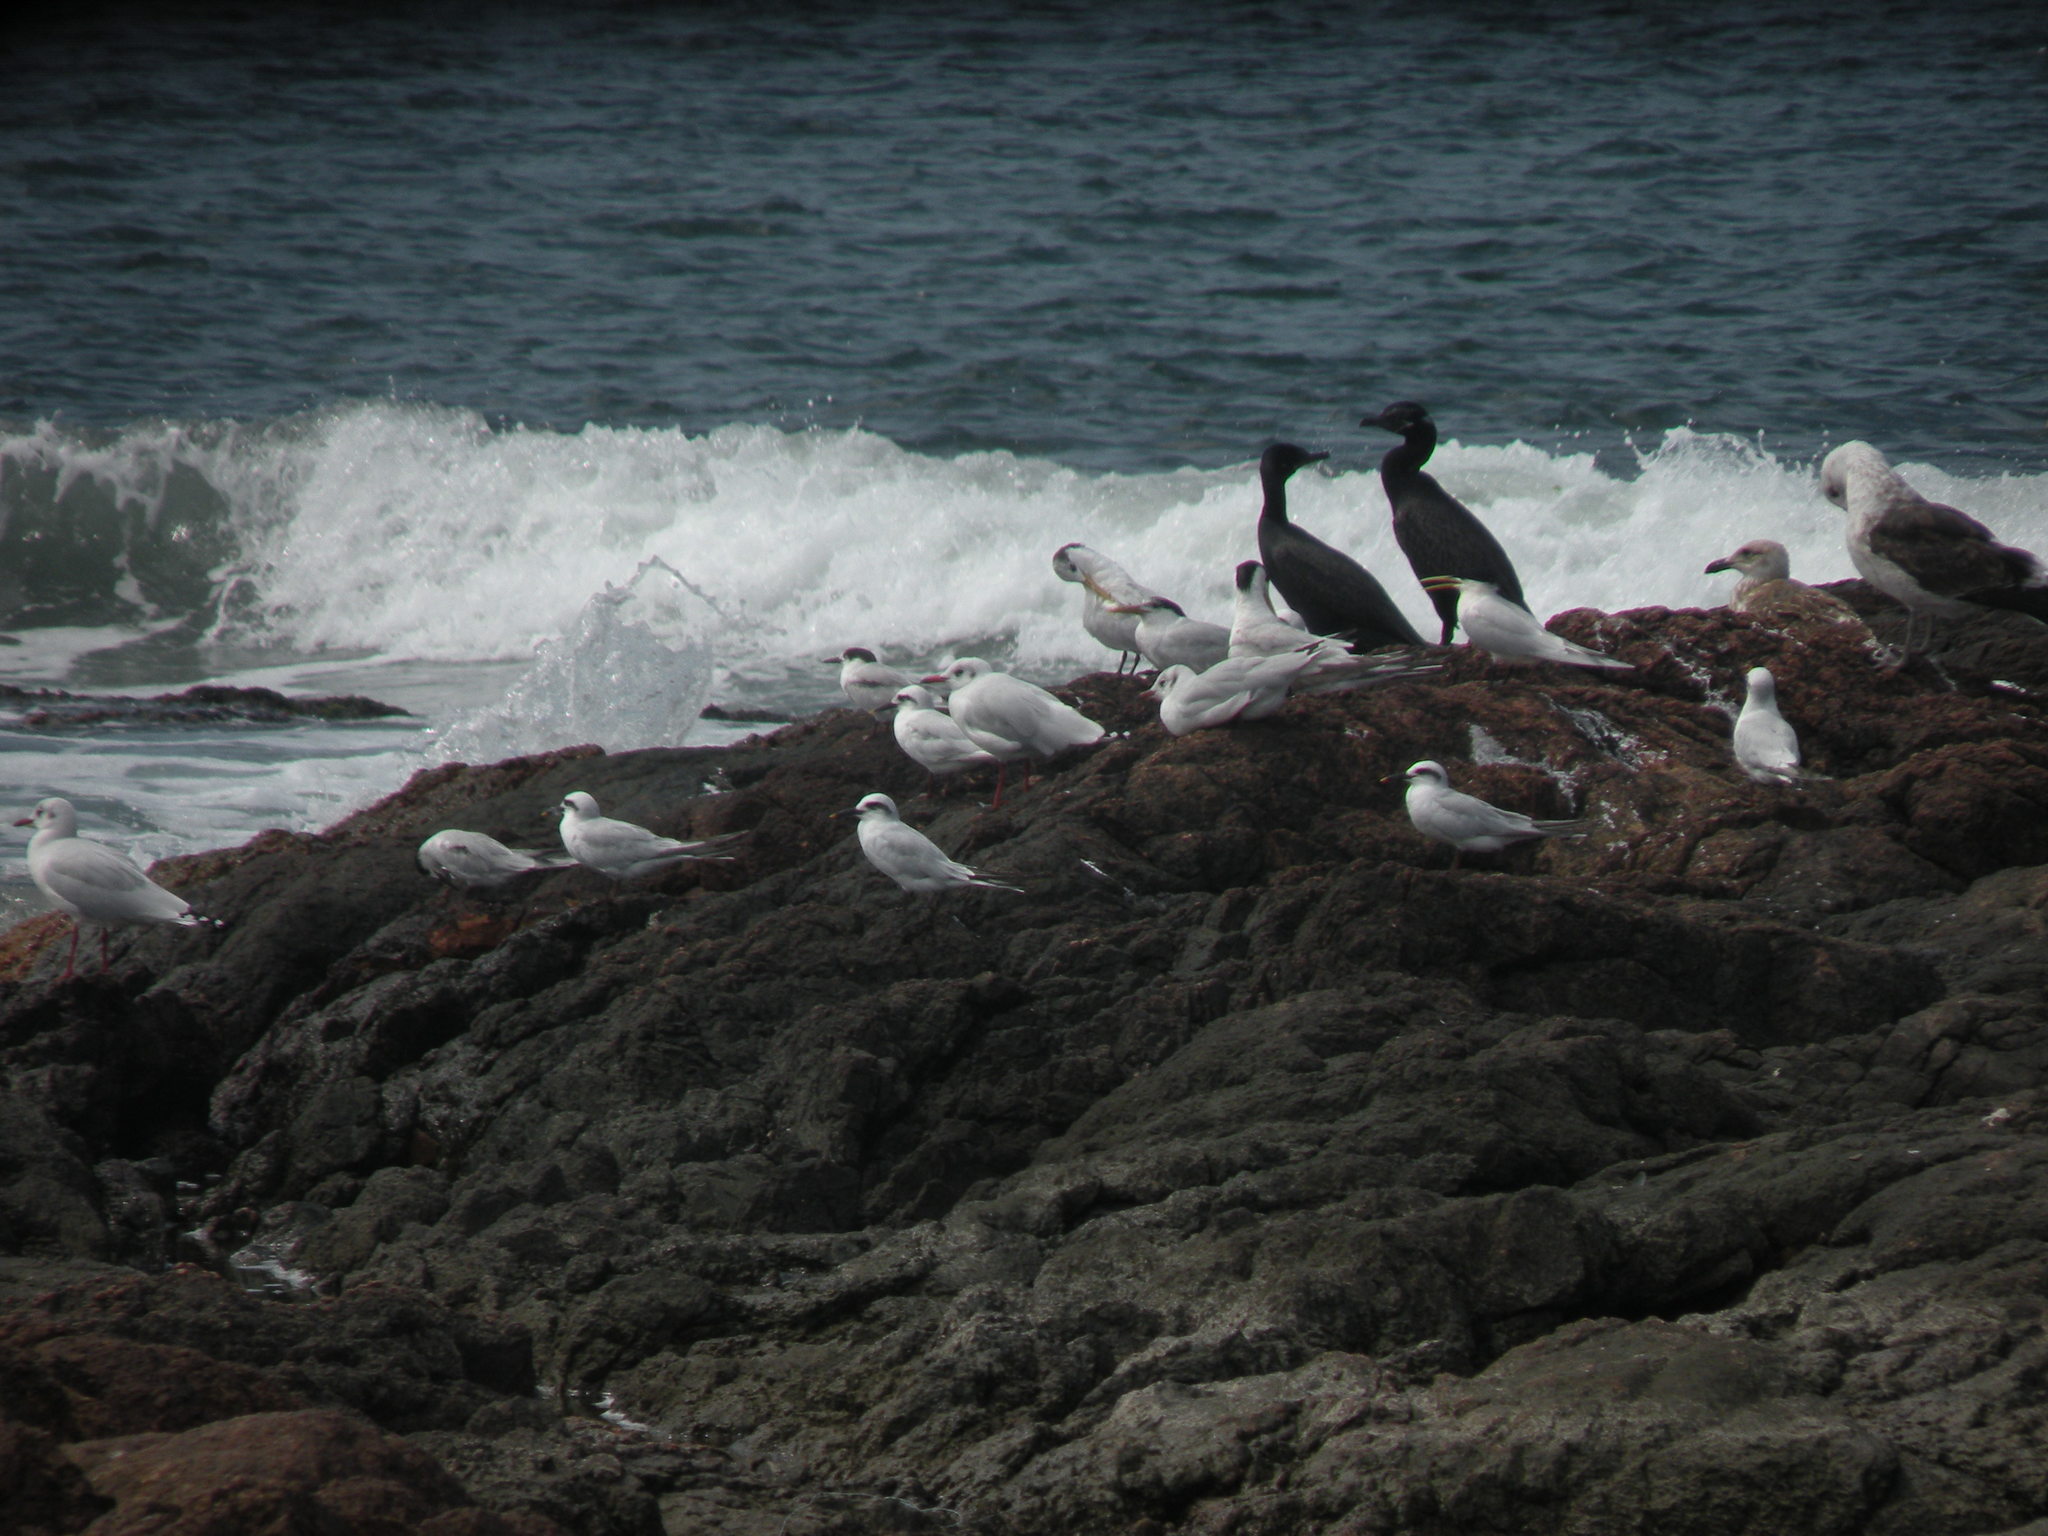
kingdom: Animalia
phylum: Chordata
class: Aves
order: Suliformes
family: Phalacrocoracidae
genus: Phalacrocorax
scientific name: Phalacrocorax brasilianus
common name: Neotropic cormorant
